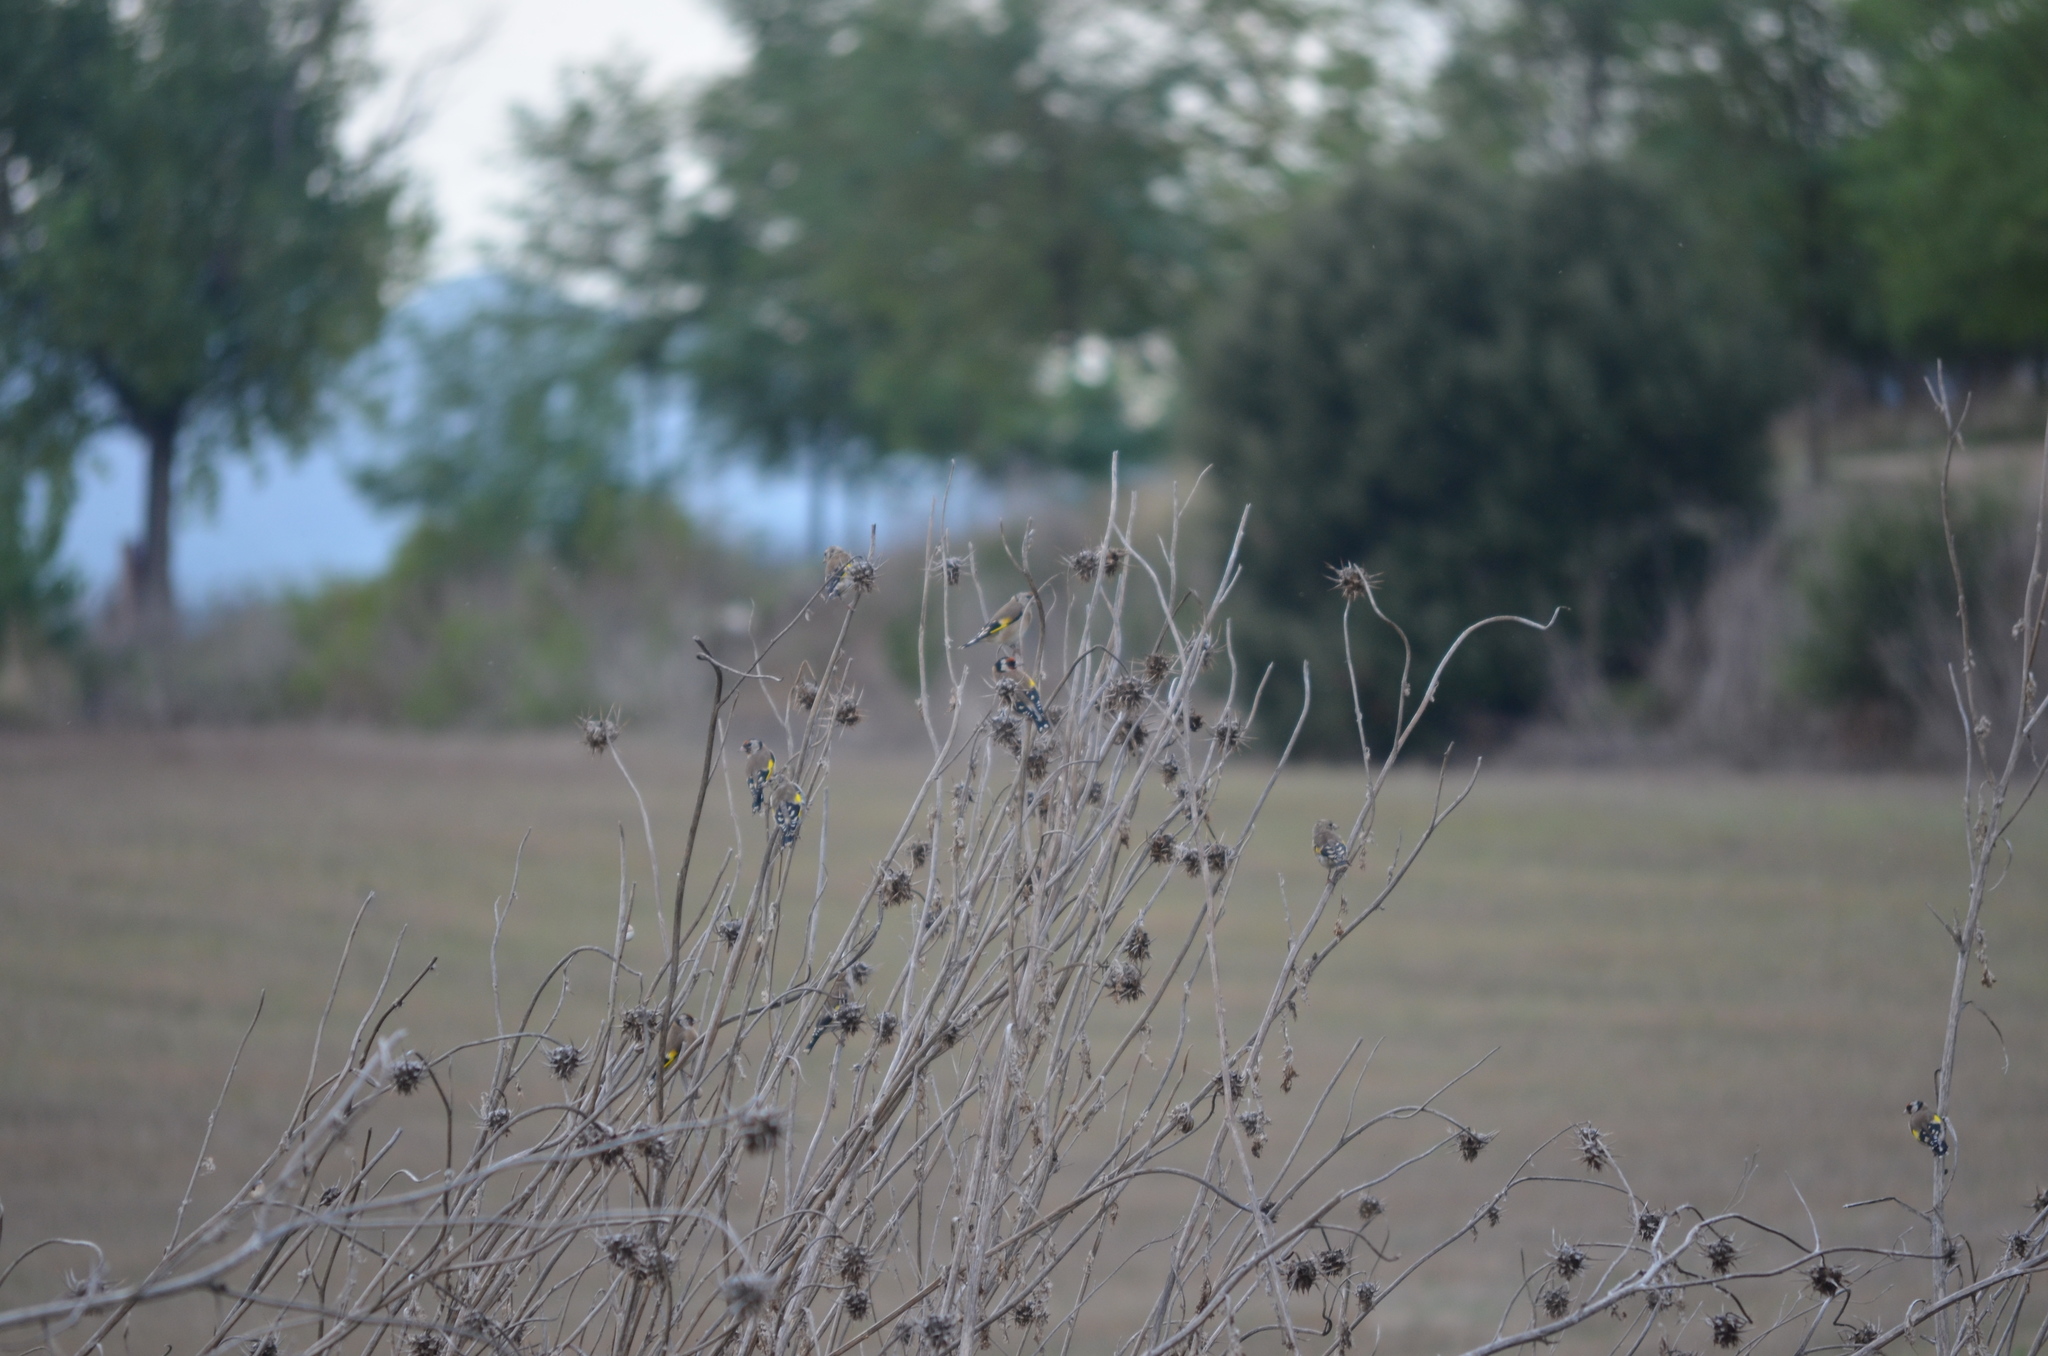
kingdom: Animalia
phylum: Chordata
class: Aves
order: Passeriformes
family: Fringillidae
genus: Carduelis
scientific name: Carduelis carduelis
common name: European goldfinch
